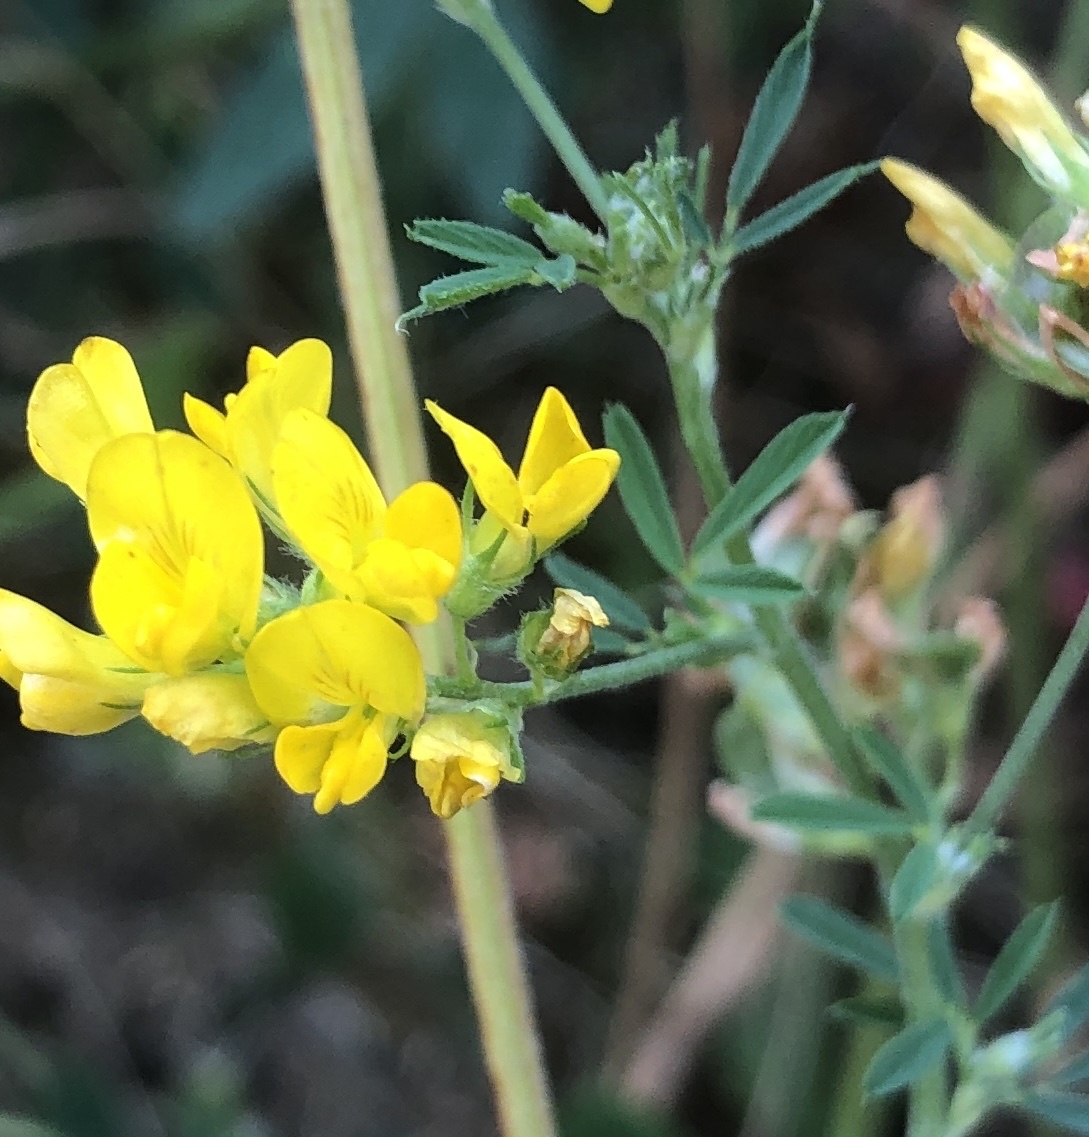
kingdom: Plantae
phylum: Tracheophyta
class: Magnoliopsida
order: Fabales
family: Fabaceae
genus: Medicago
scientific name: Medicago falcata
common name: Sickle medick
